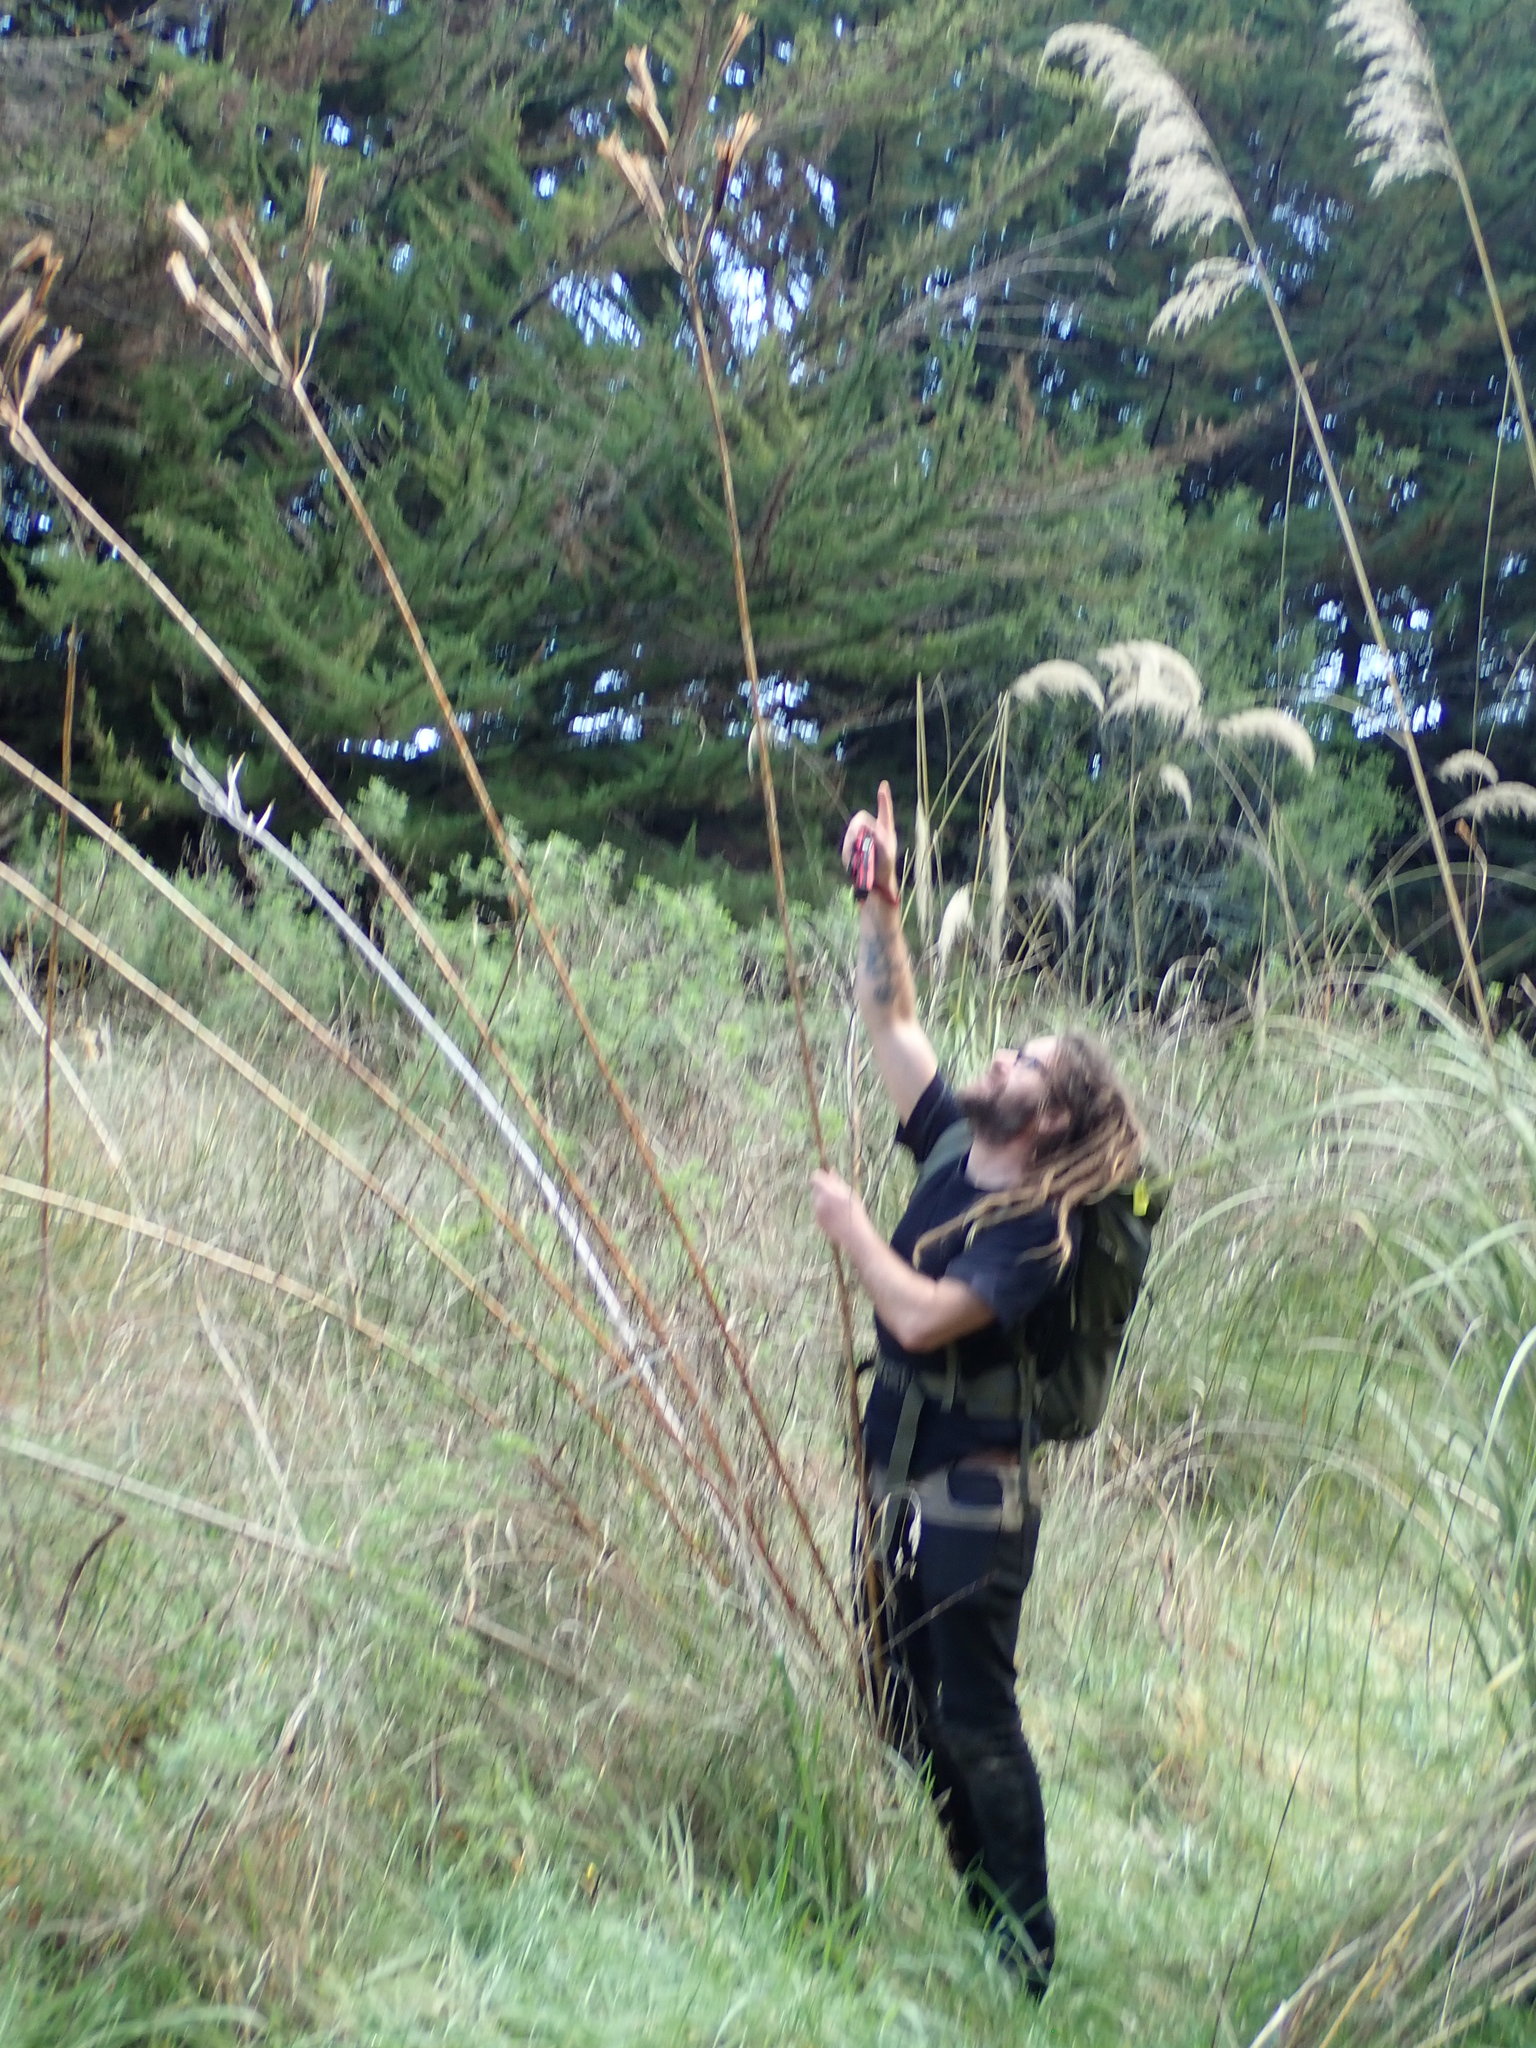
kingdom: Plantae
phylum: Tracheophyta
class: Liliopsida
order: Liliales
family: Liliaceae
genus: Lilium
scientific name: Lilium formosanum
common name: Formosa lily
